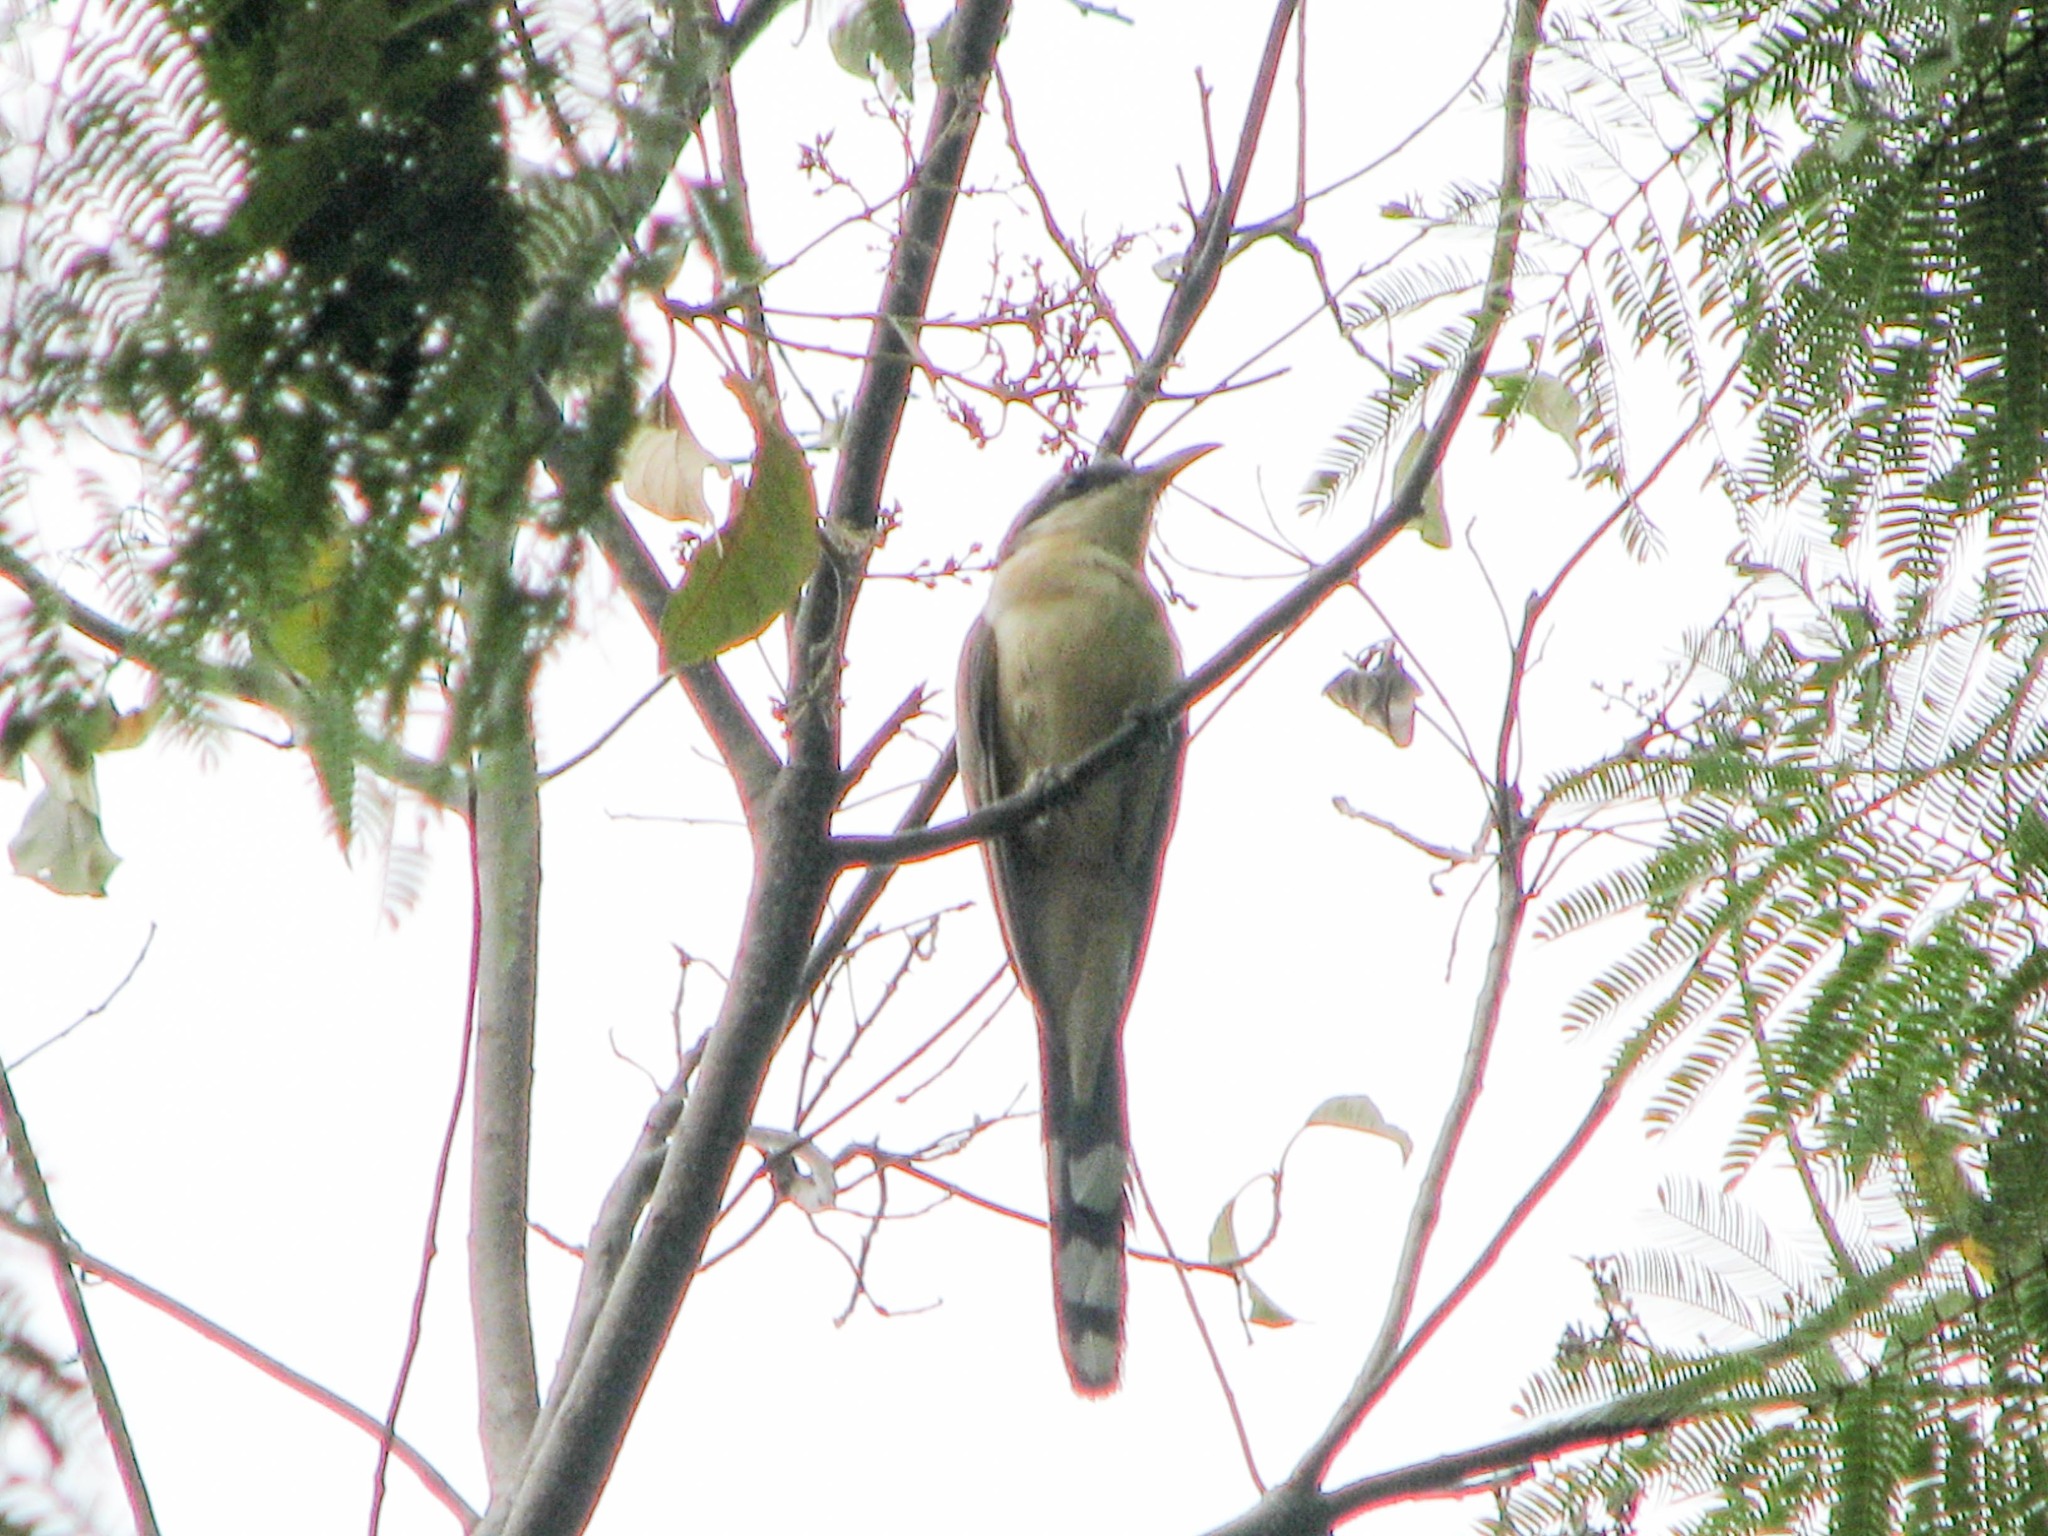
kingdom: Animalia
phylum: Chordata
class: Aves
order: Cuculiformes
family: Cuculidae
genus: Coccyzus
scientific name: Coccyzus minor
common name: Mangrove cuckoo
